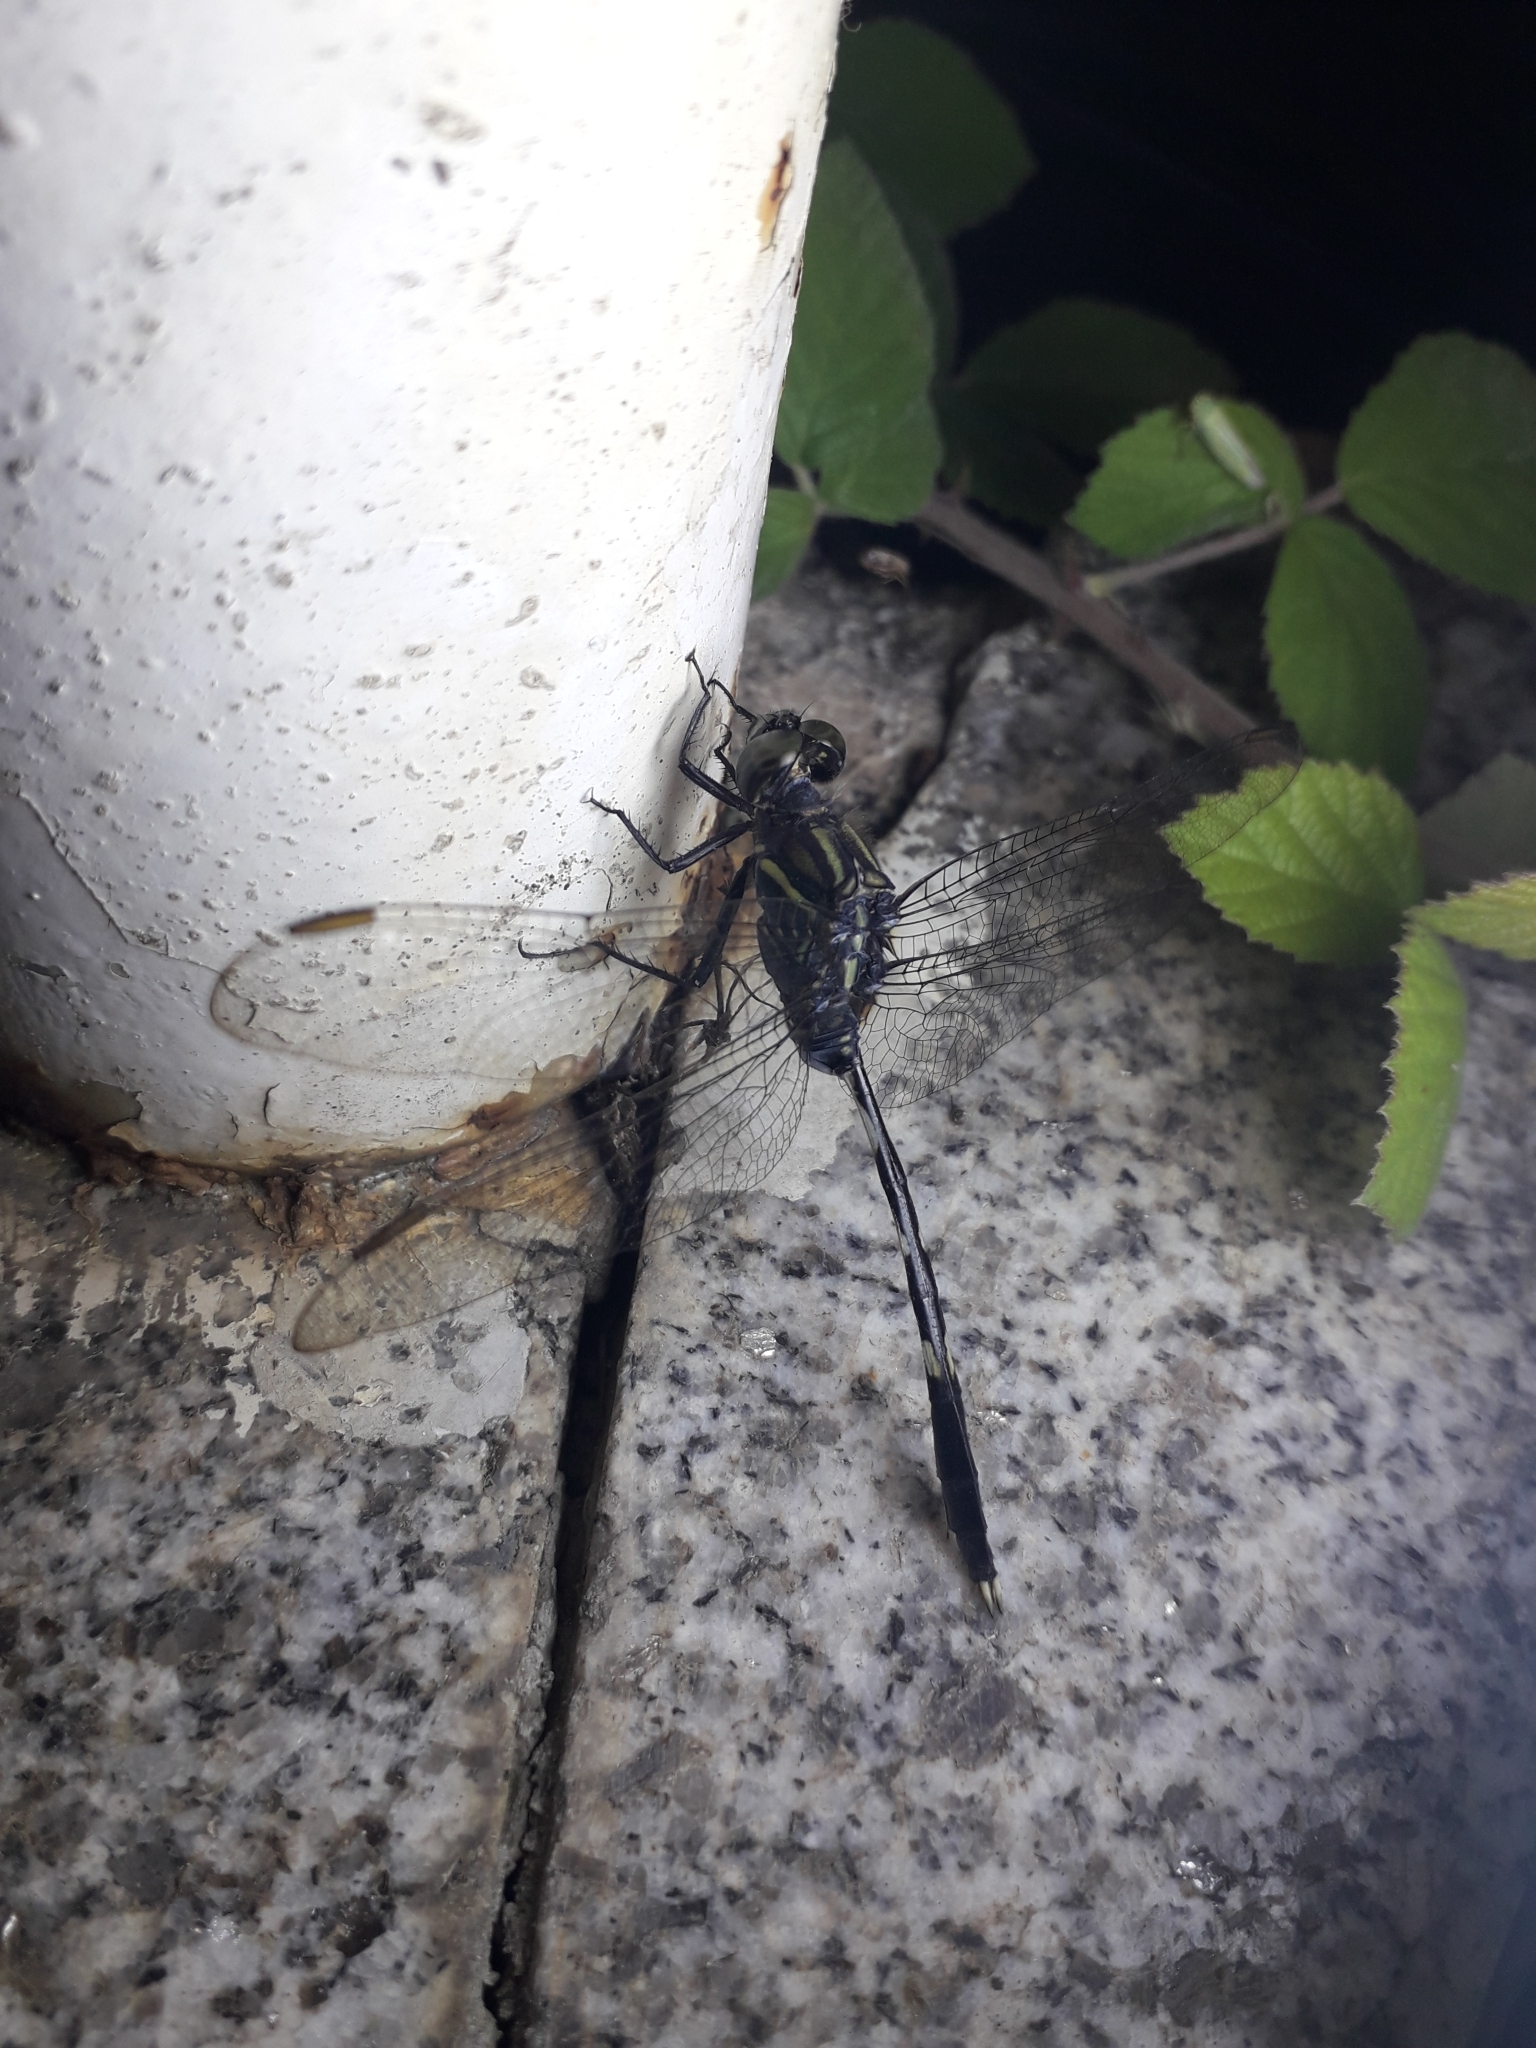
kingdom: Animalia
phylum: Arthropoda
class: Insecta
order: Odonata
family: Libellulidae
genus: Orthetrum
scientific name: Orthetrum sabina
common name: Slender skimmer
